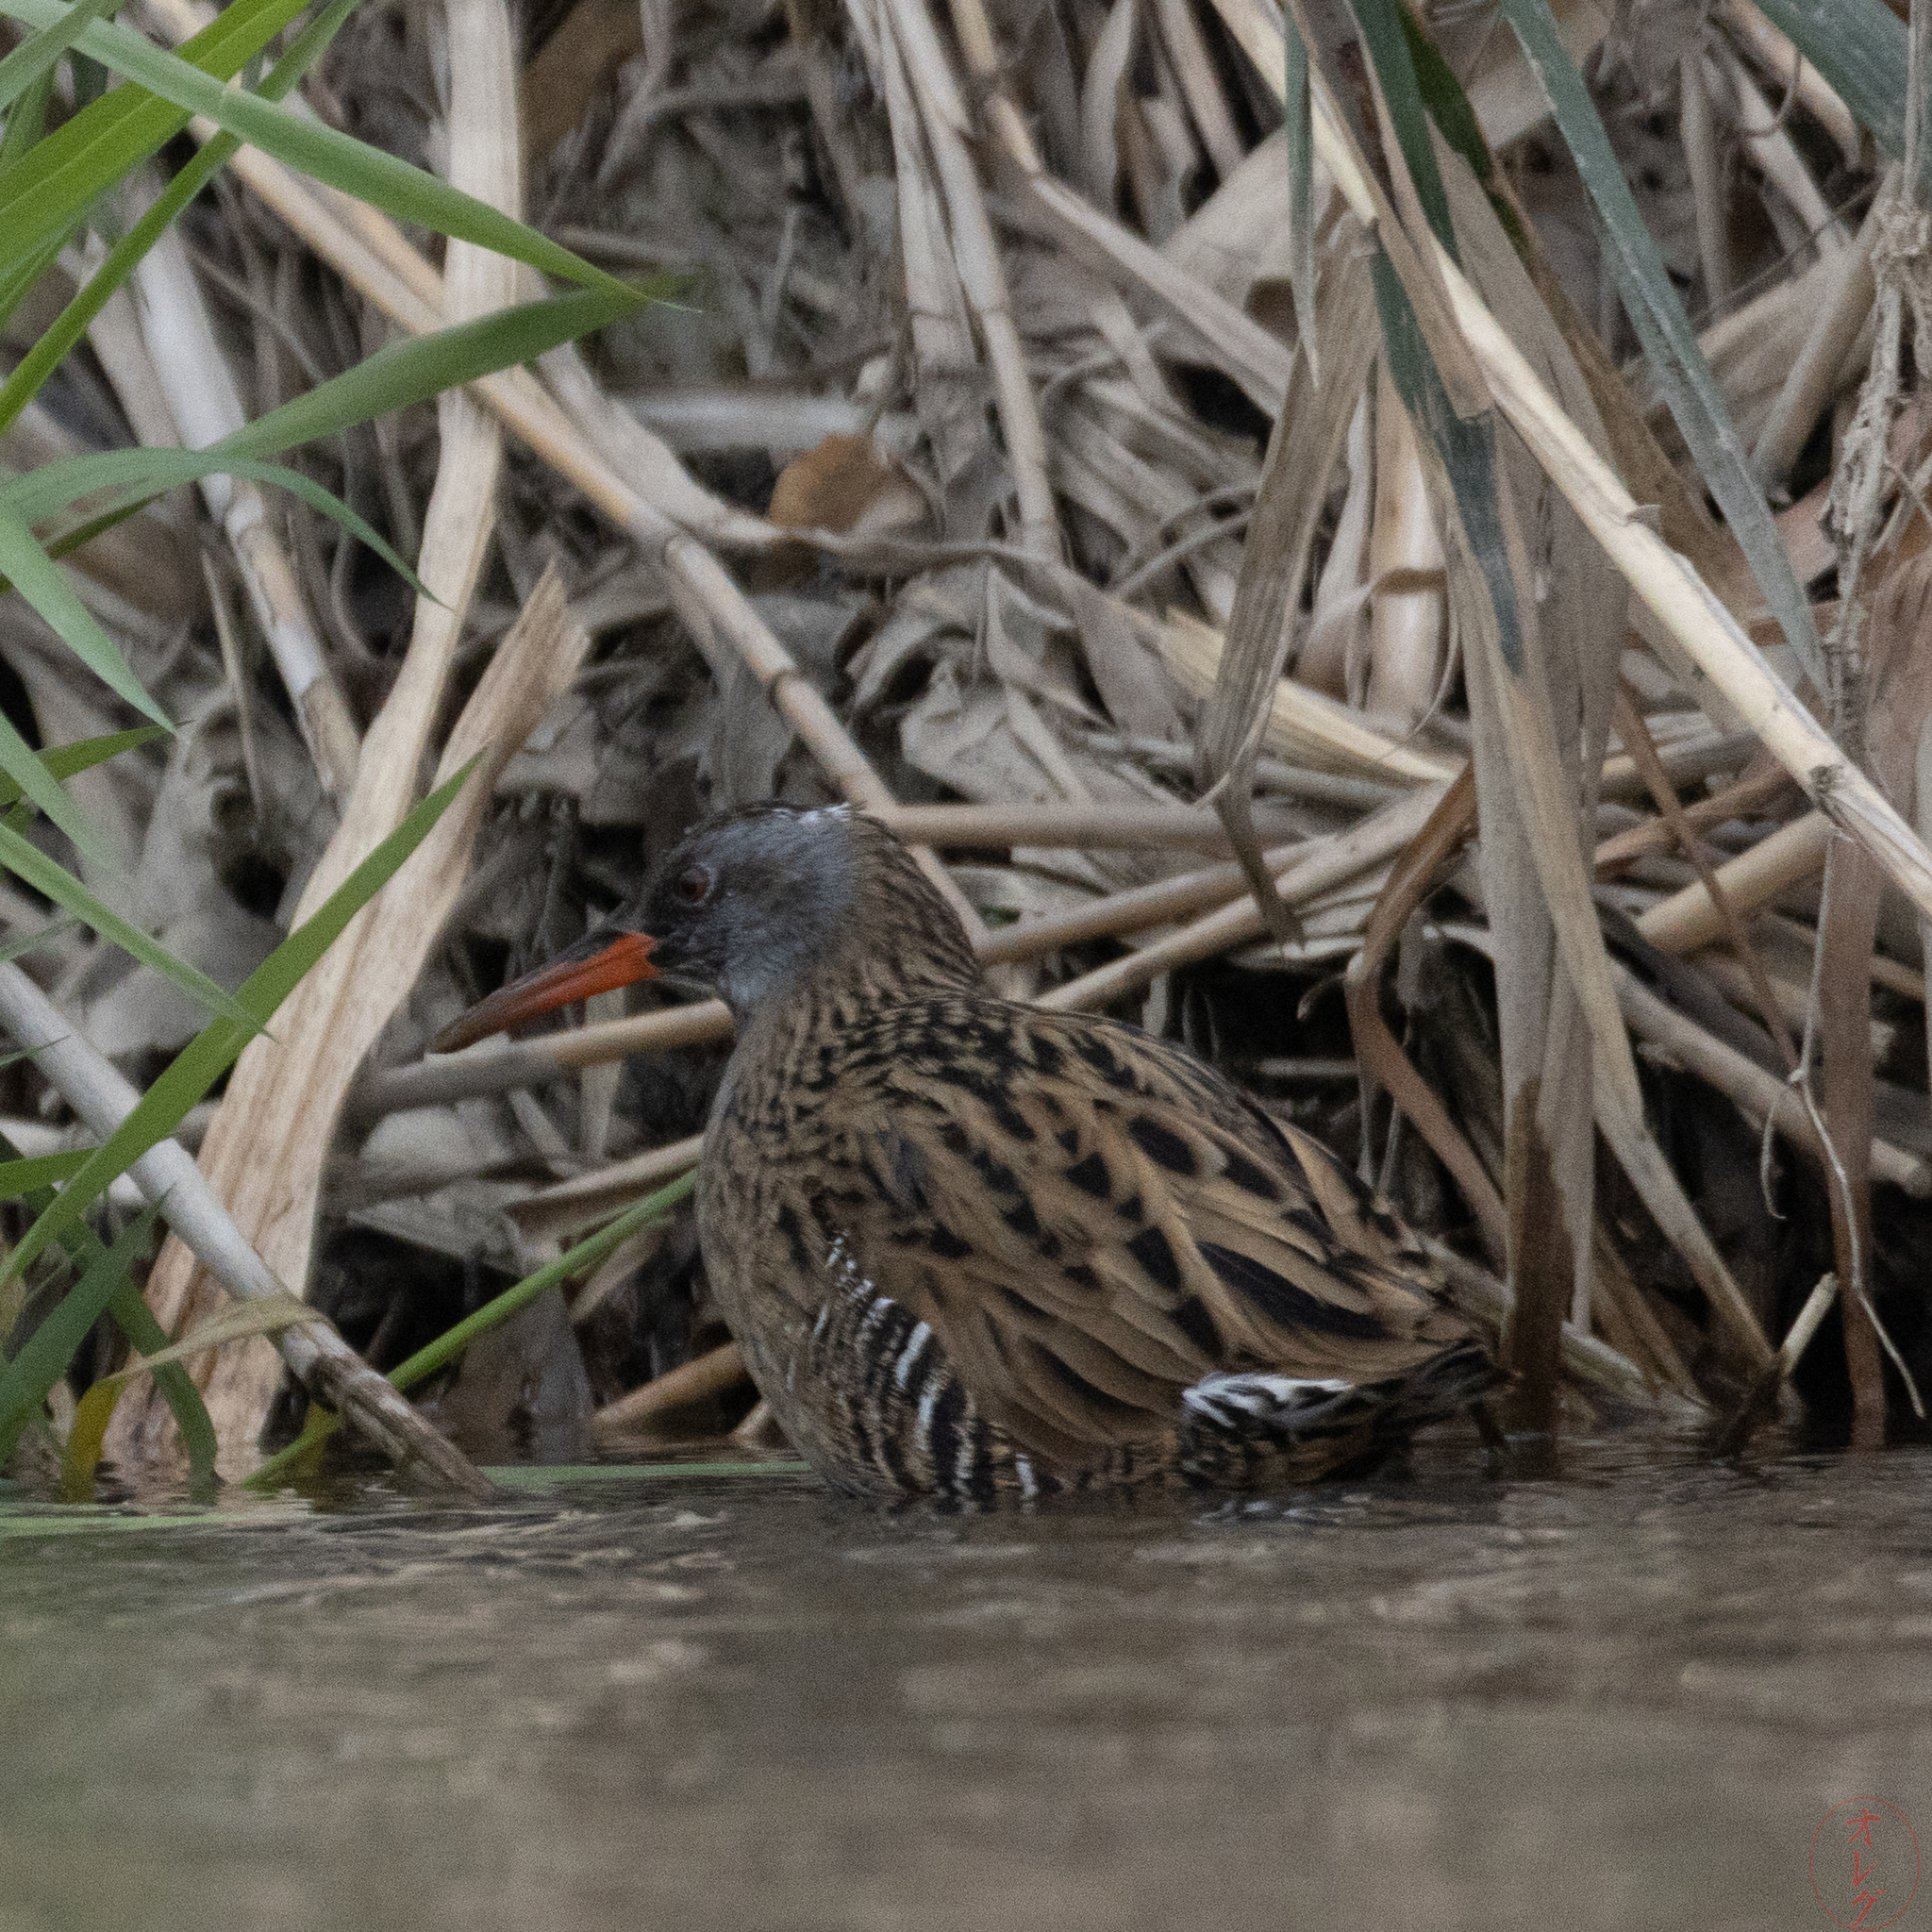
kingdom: Animalia
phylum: Chordata
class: Aves
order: Gruiformes
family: Rallidae
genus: Rallus
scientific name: Rallus indicus
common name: Brown-cheeked rail
